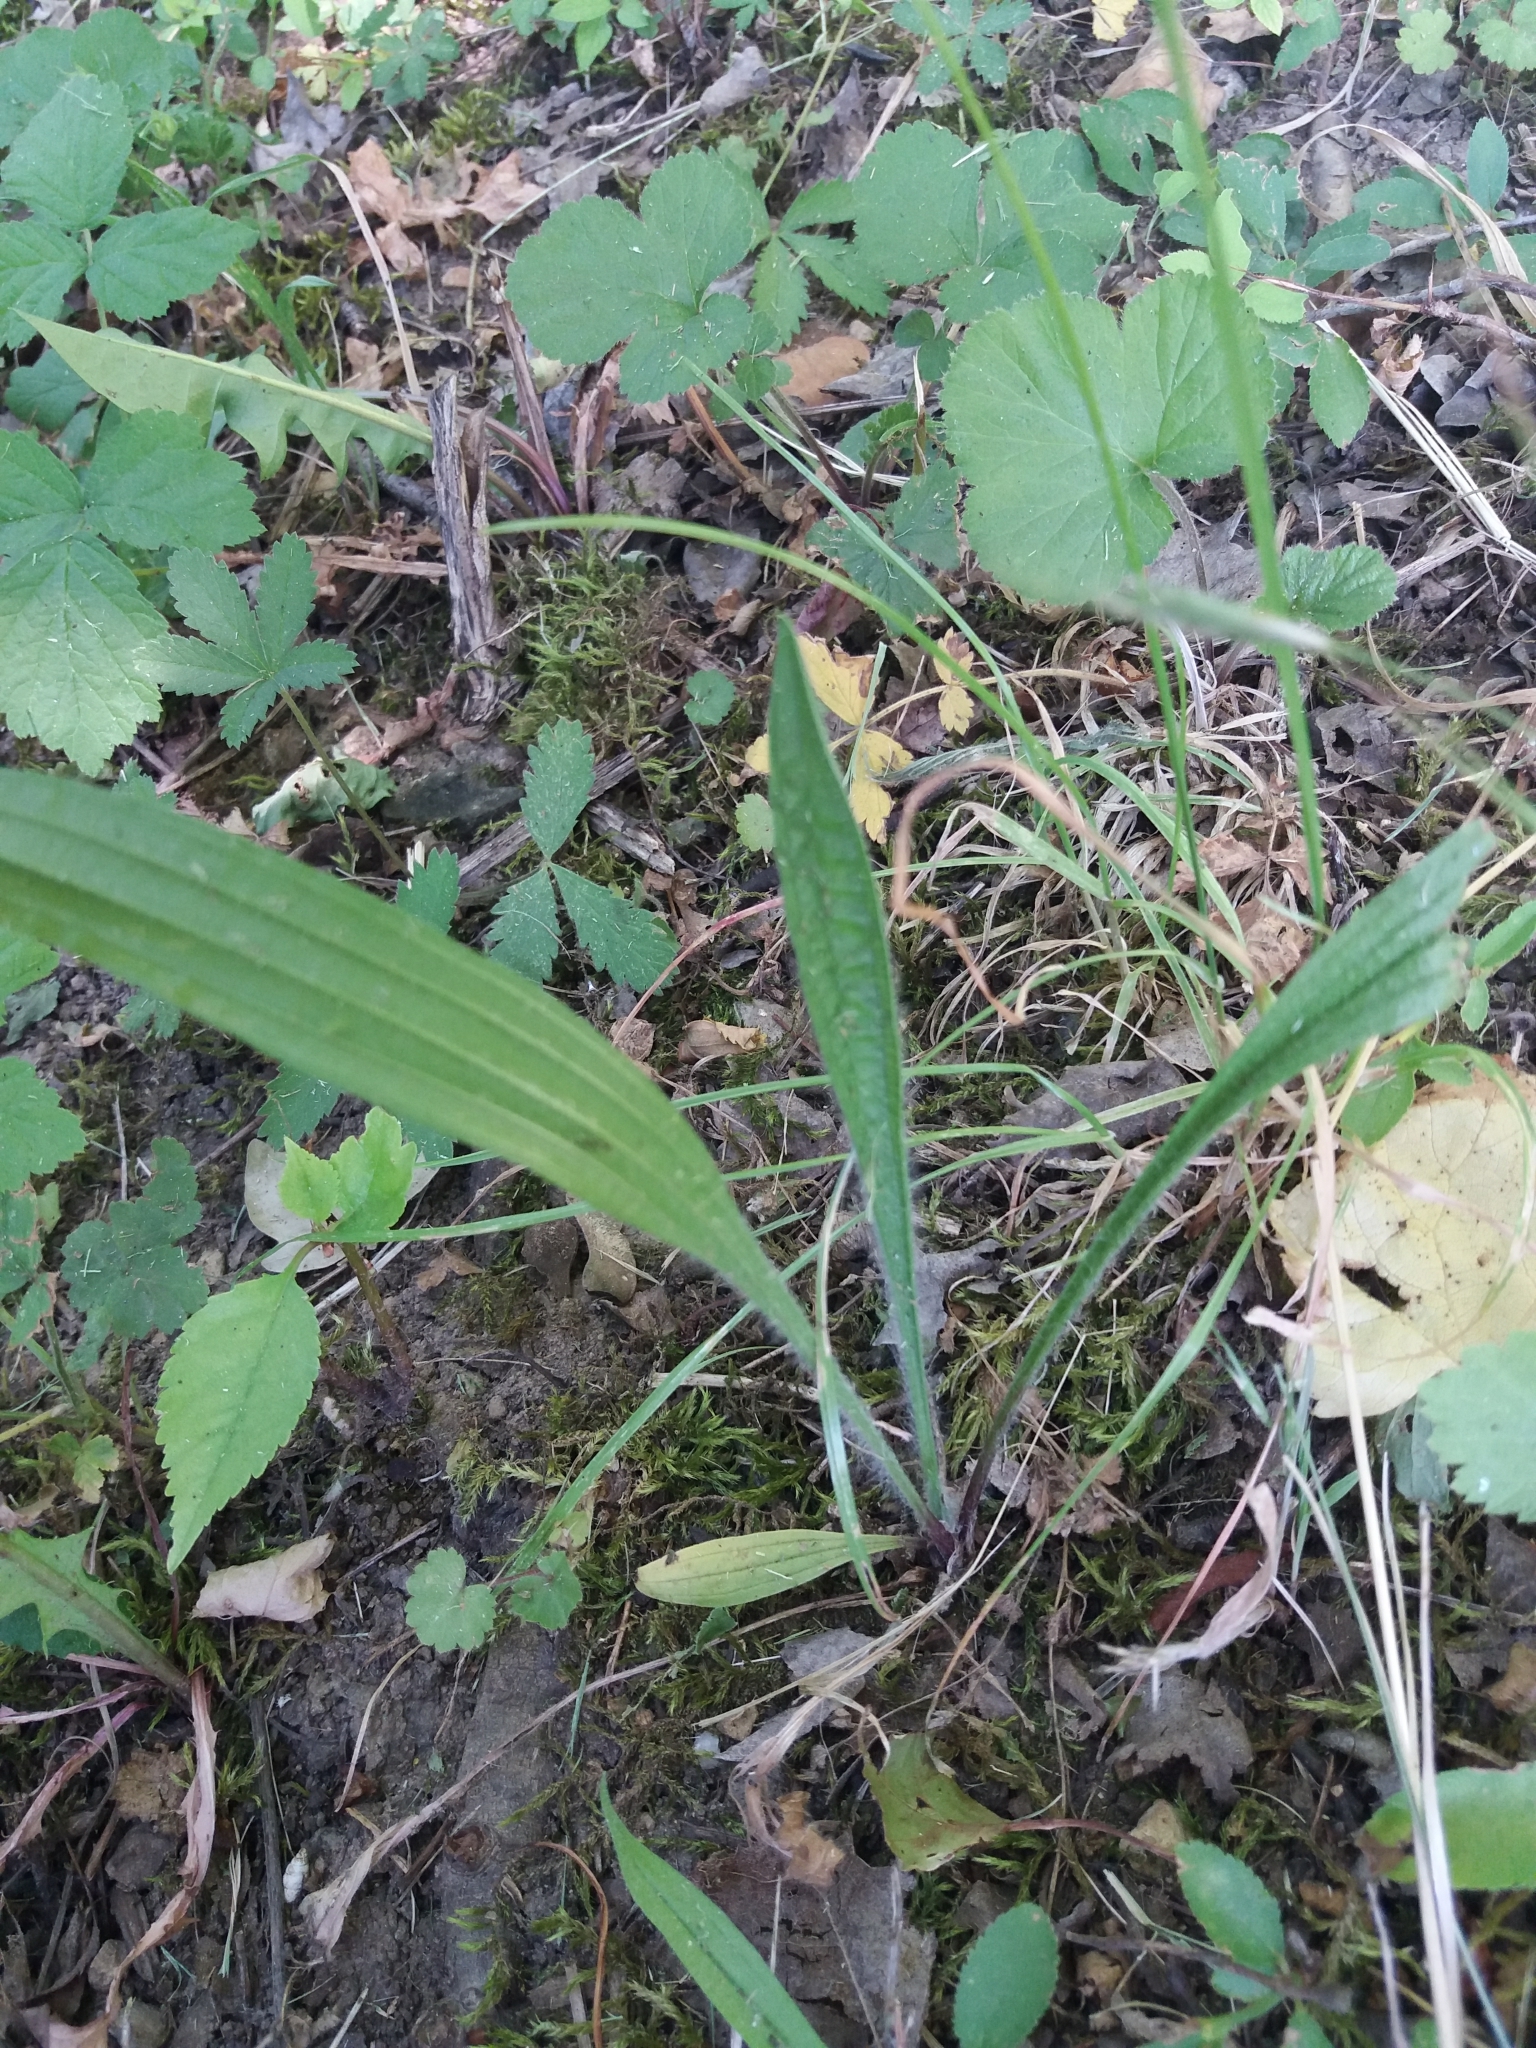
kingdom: Plantae
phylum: Tracheophyta
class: Magnoliopsida
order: Lamiales
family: Plantaginaceae
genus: Plantago
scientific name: Plantago lanceolata
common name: Ribwort plantain
